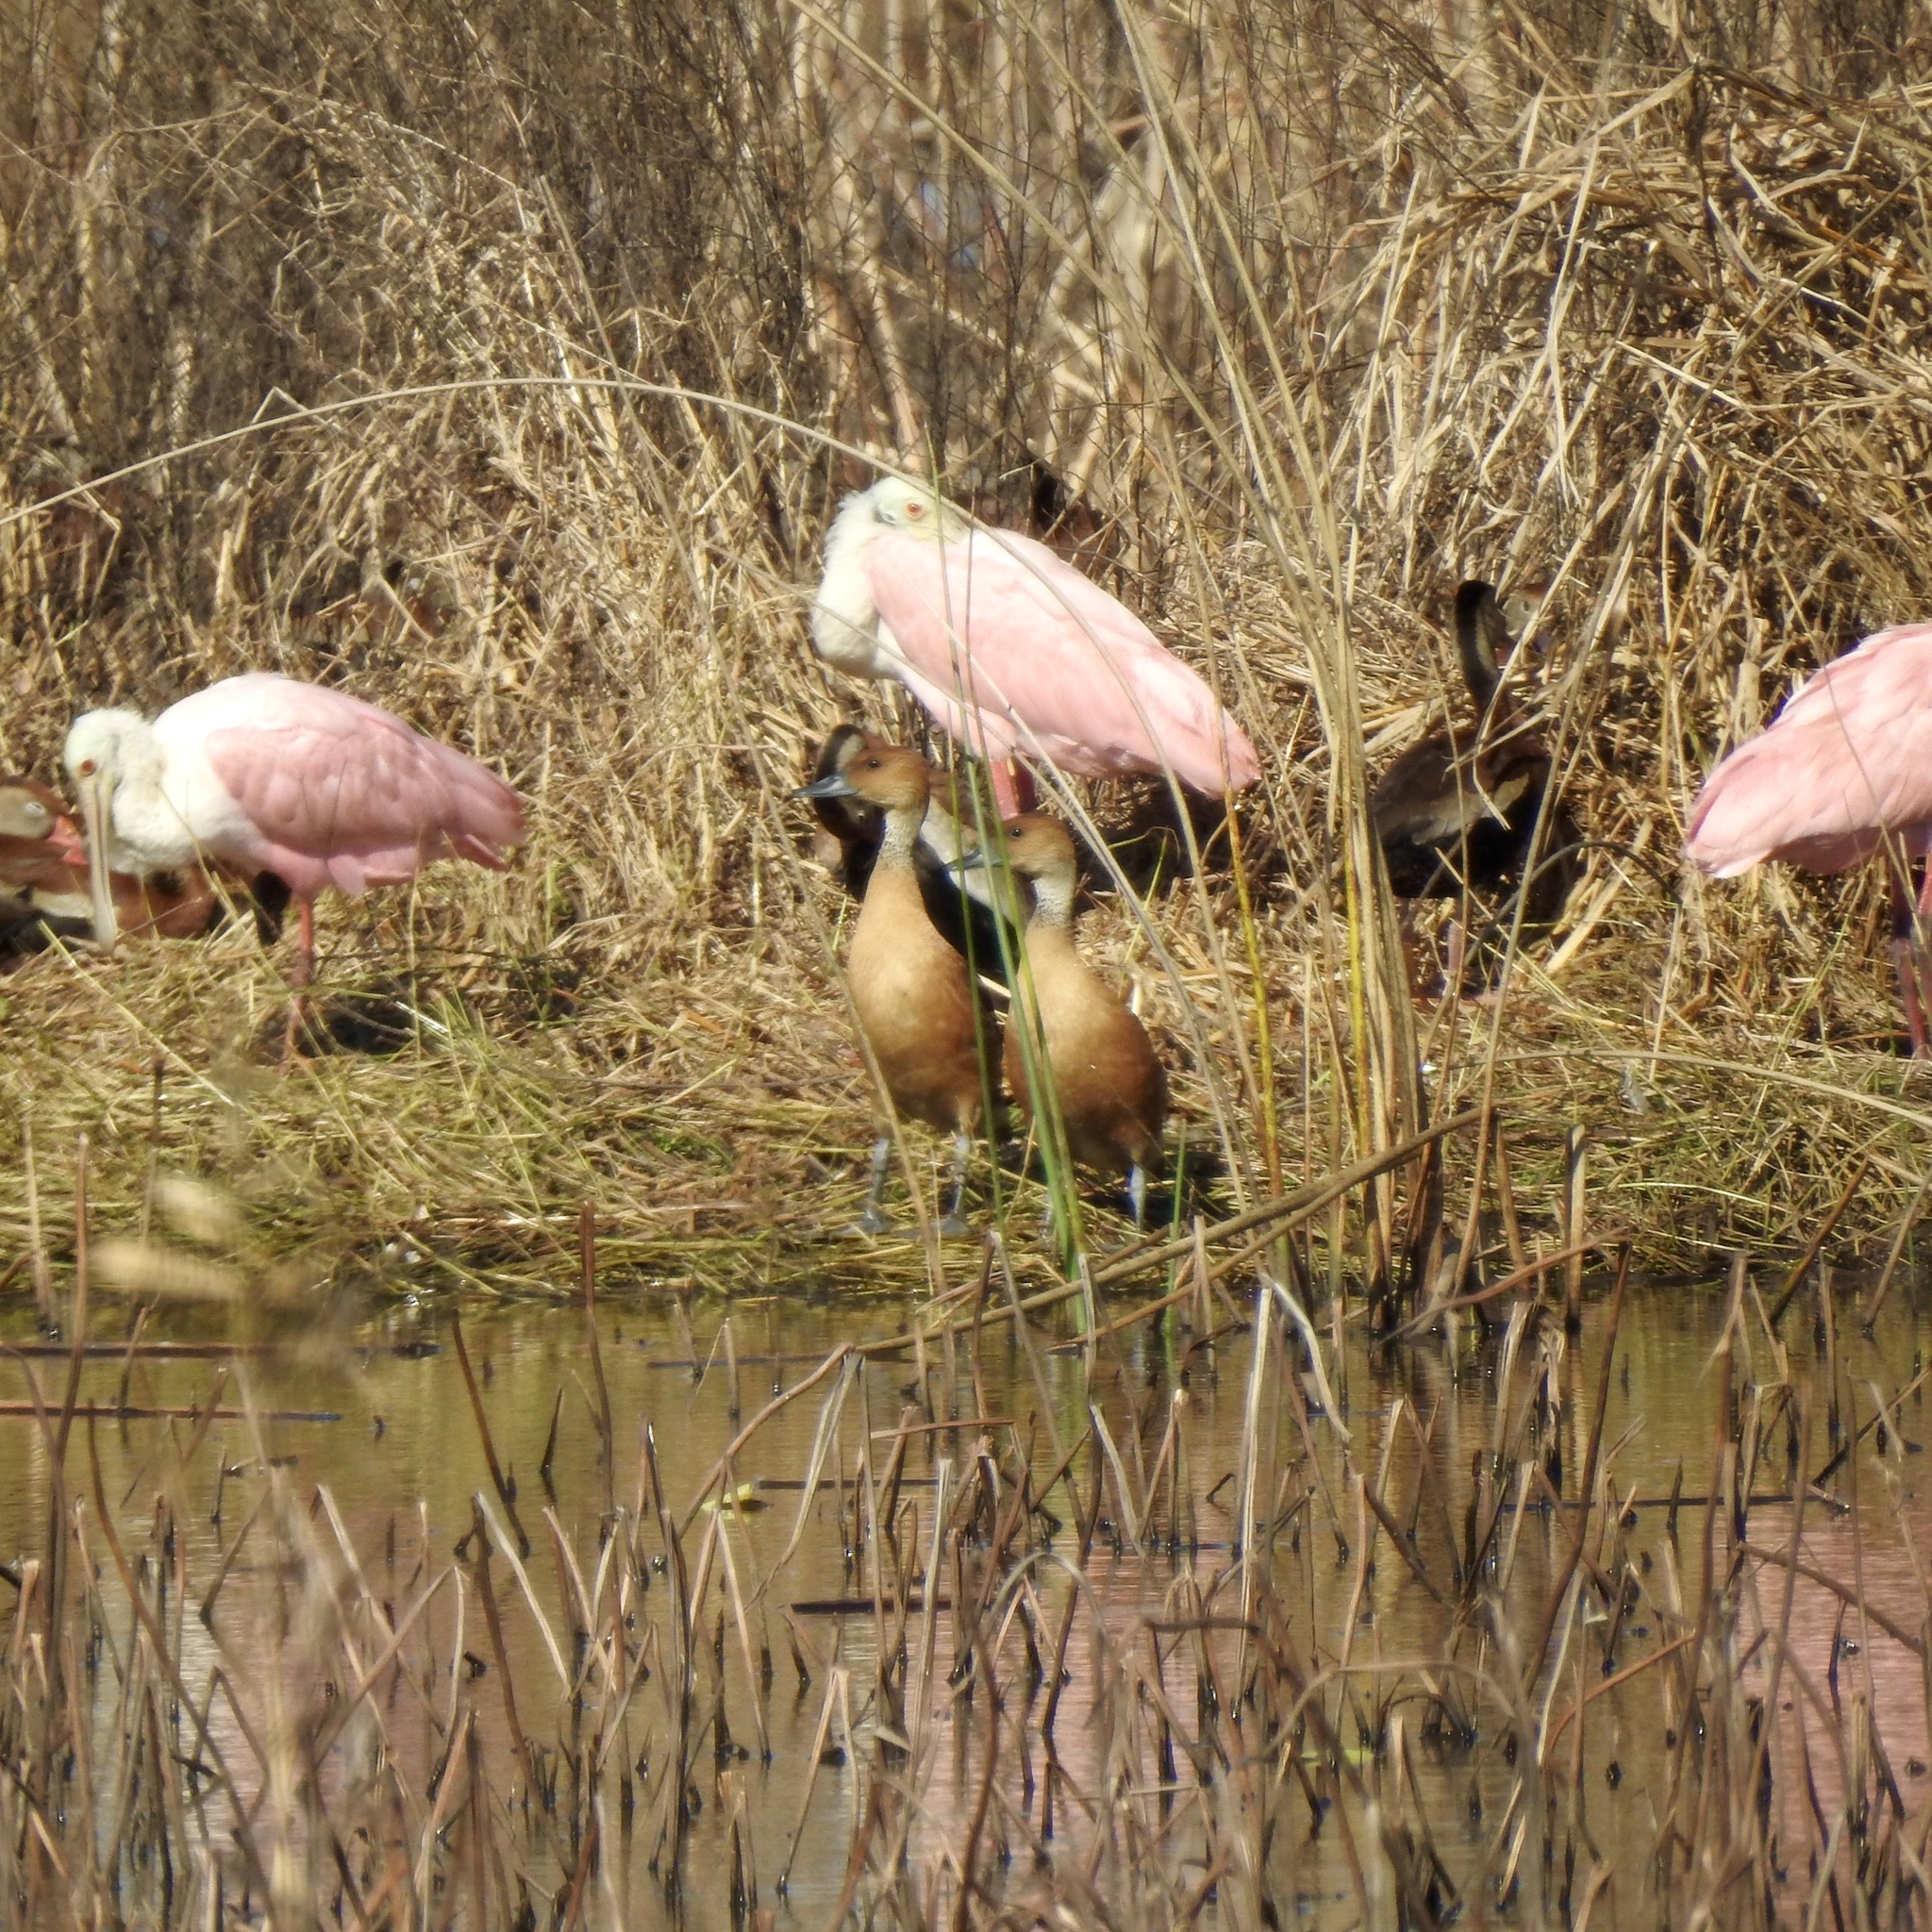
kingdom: Animalia
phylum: Chordata
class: Aves
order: Anseriformes
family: Anatidae
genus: Dendrocygna
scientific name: Dendrocygna bicolor
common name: Fulvous whistling duck
